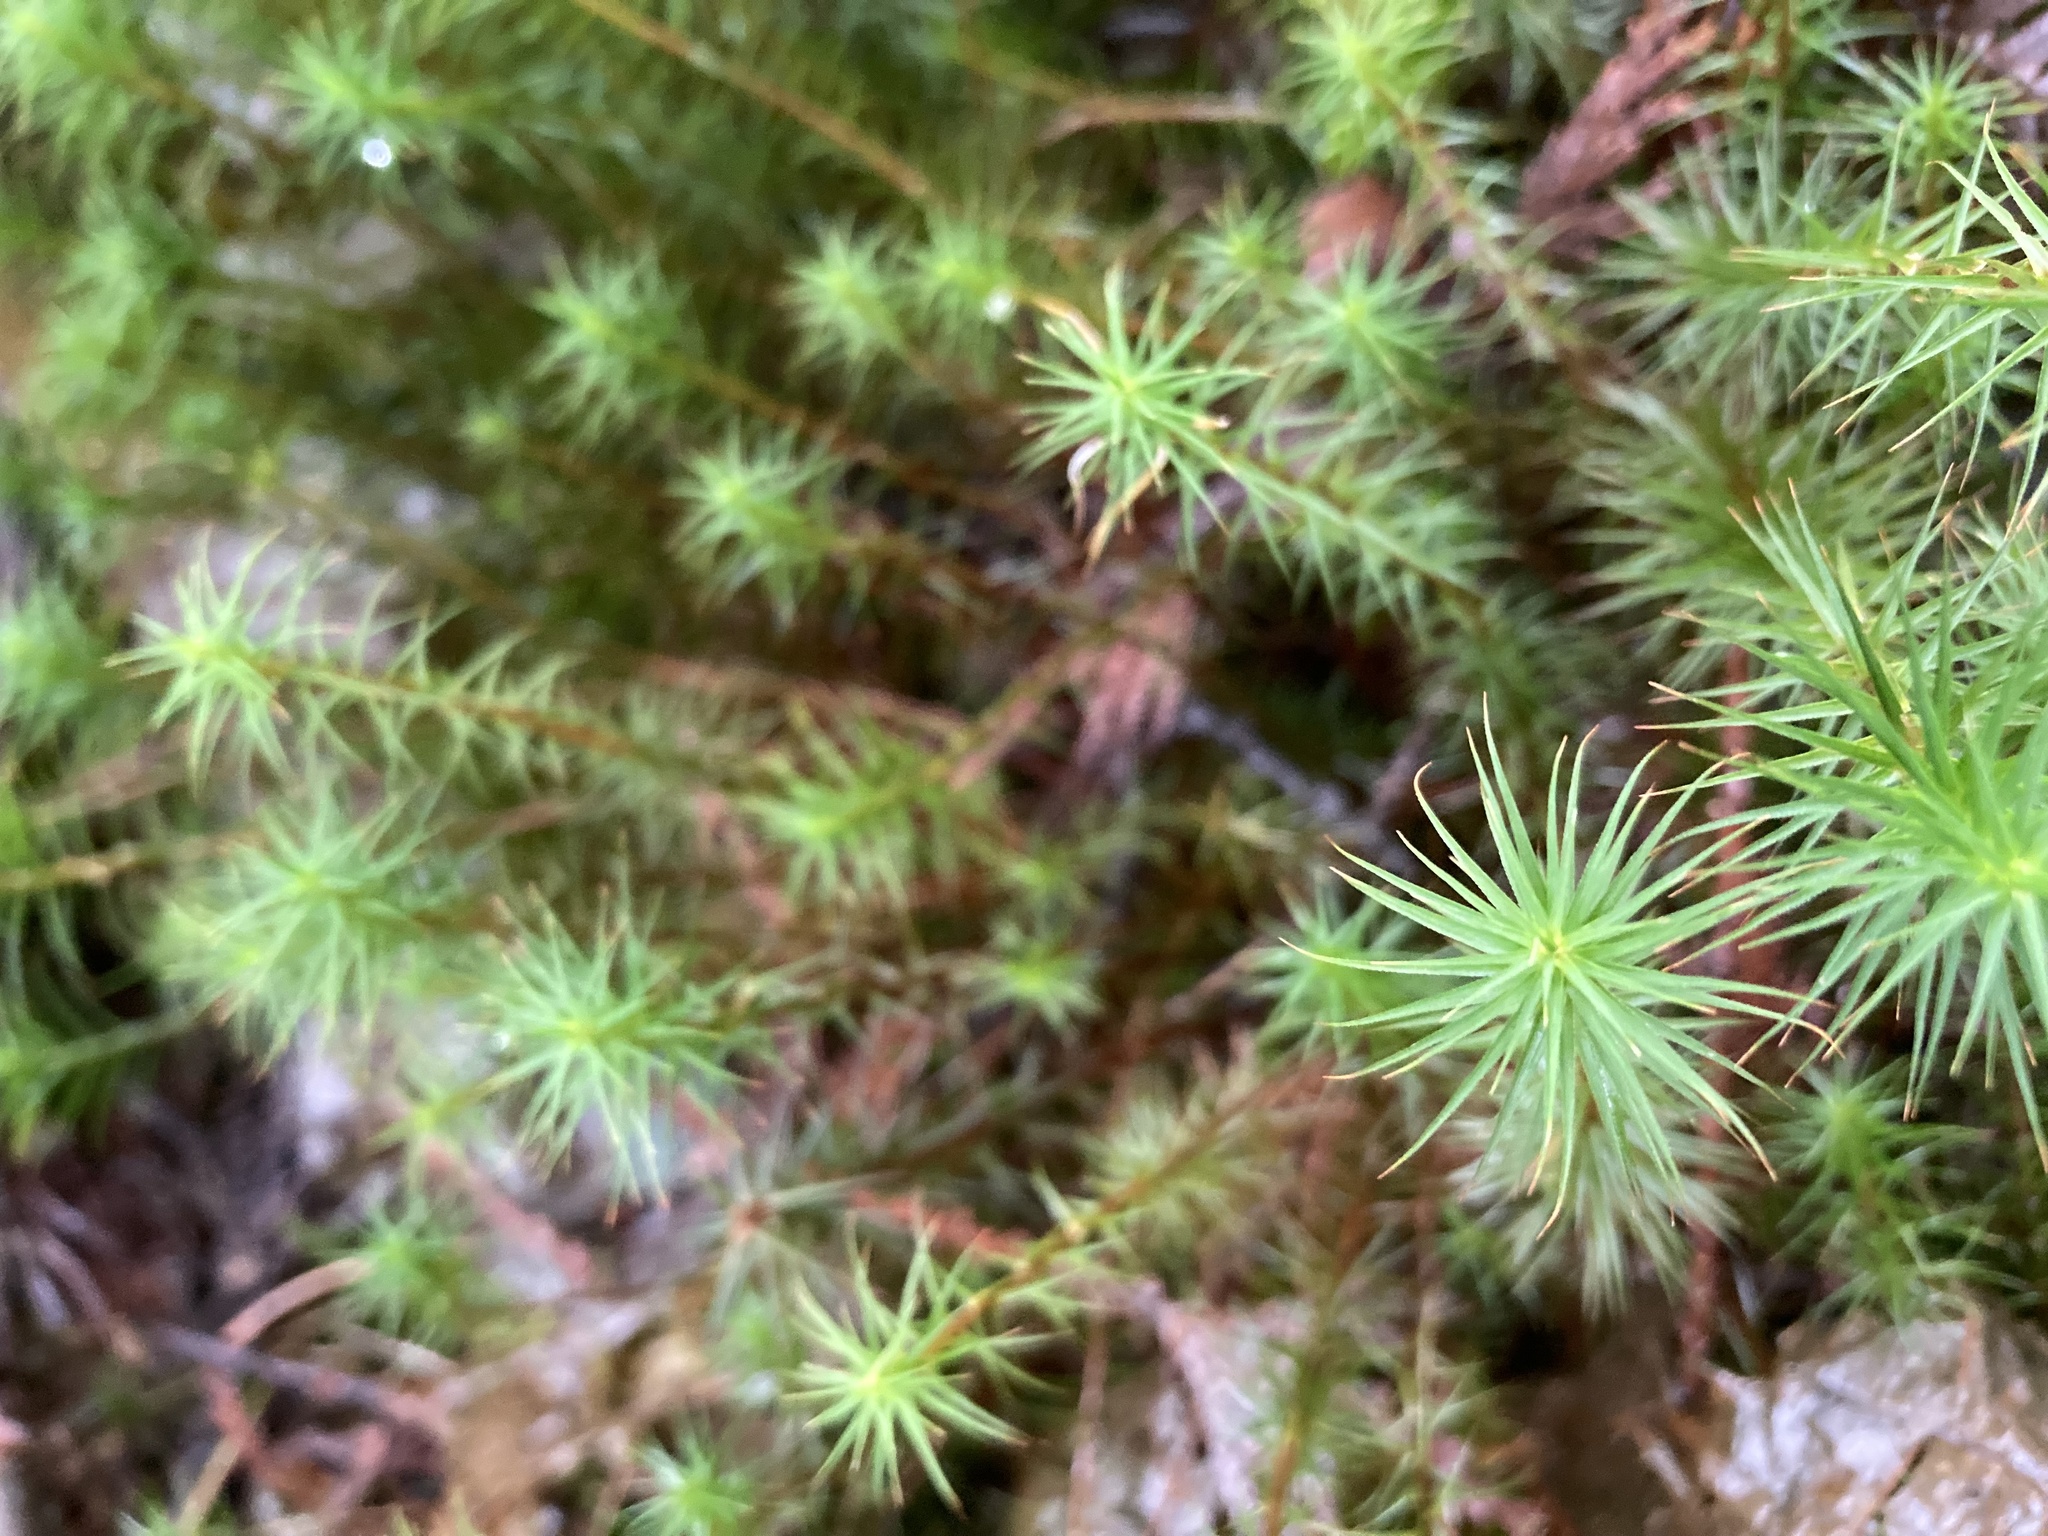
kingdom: Plantae
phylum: Bryophyta
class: Polytrichopsida
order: Polytrichales
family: Polytrichaceae
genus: Polytrichum
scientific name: Polytrichum commune
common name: Common haircap
